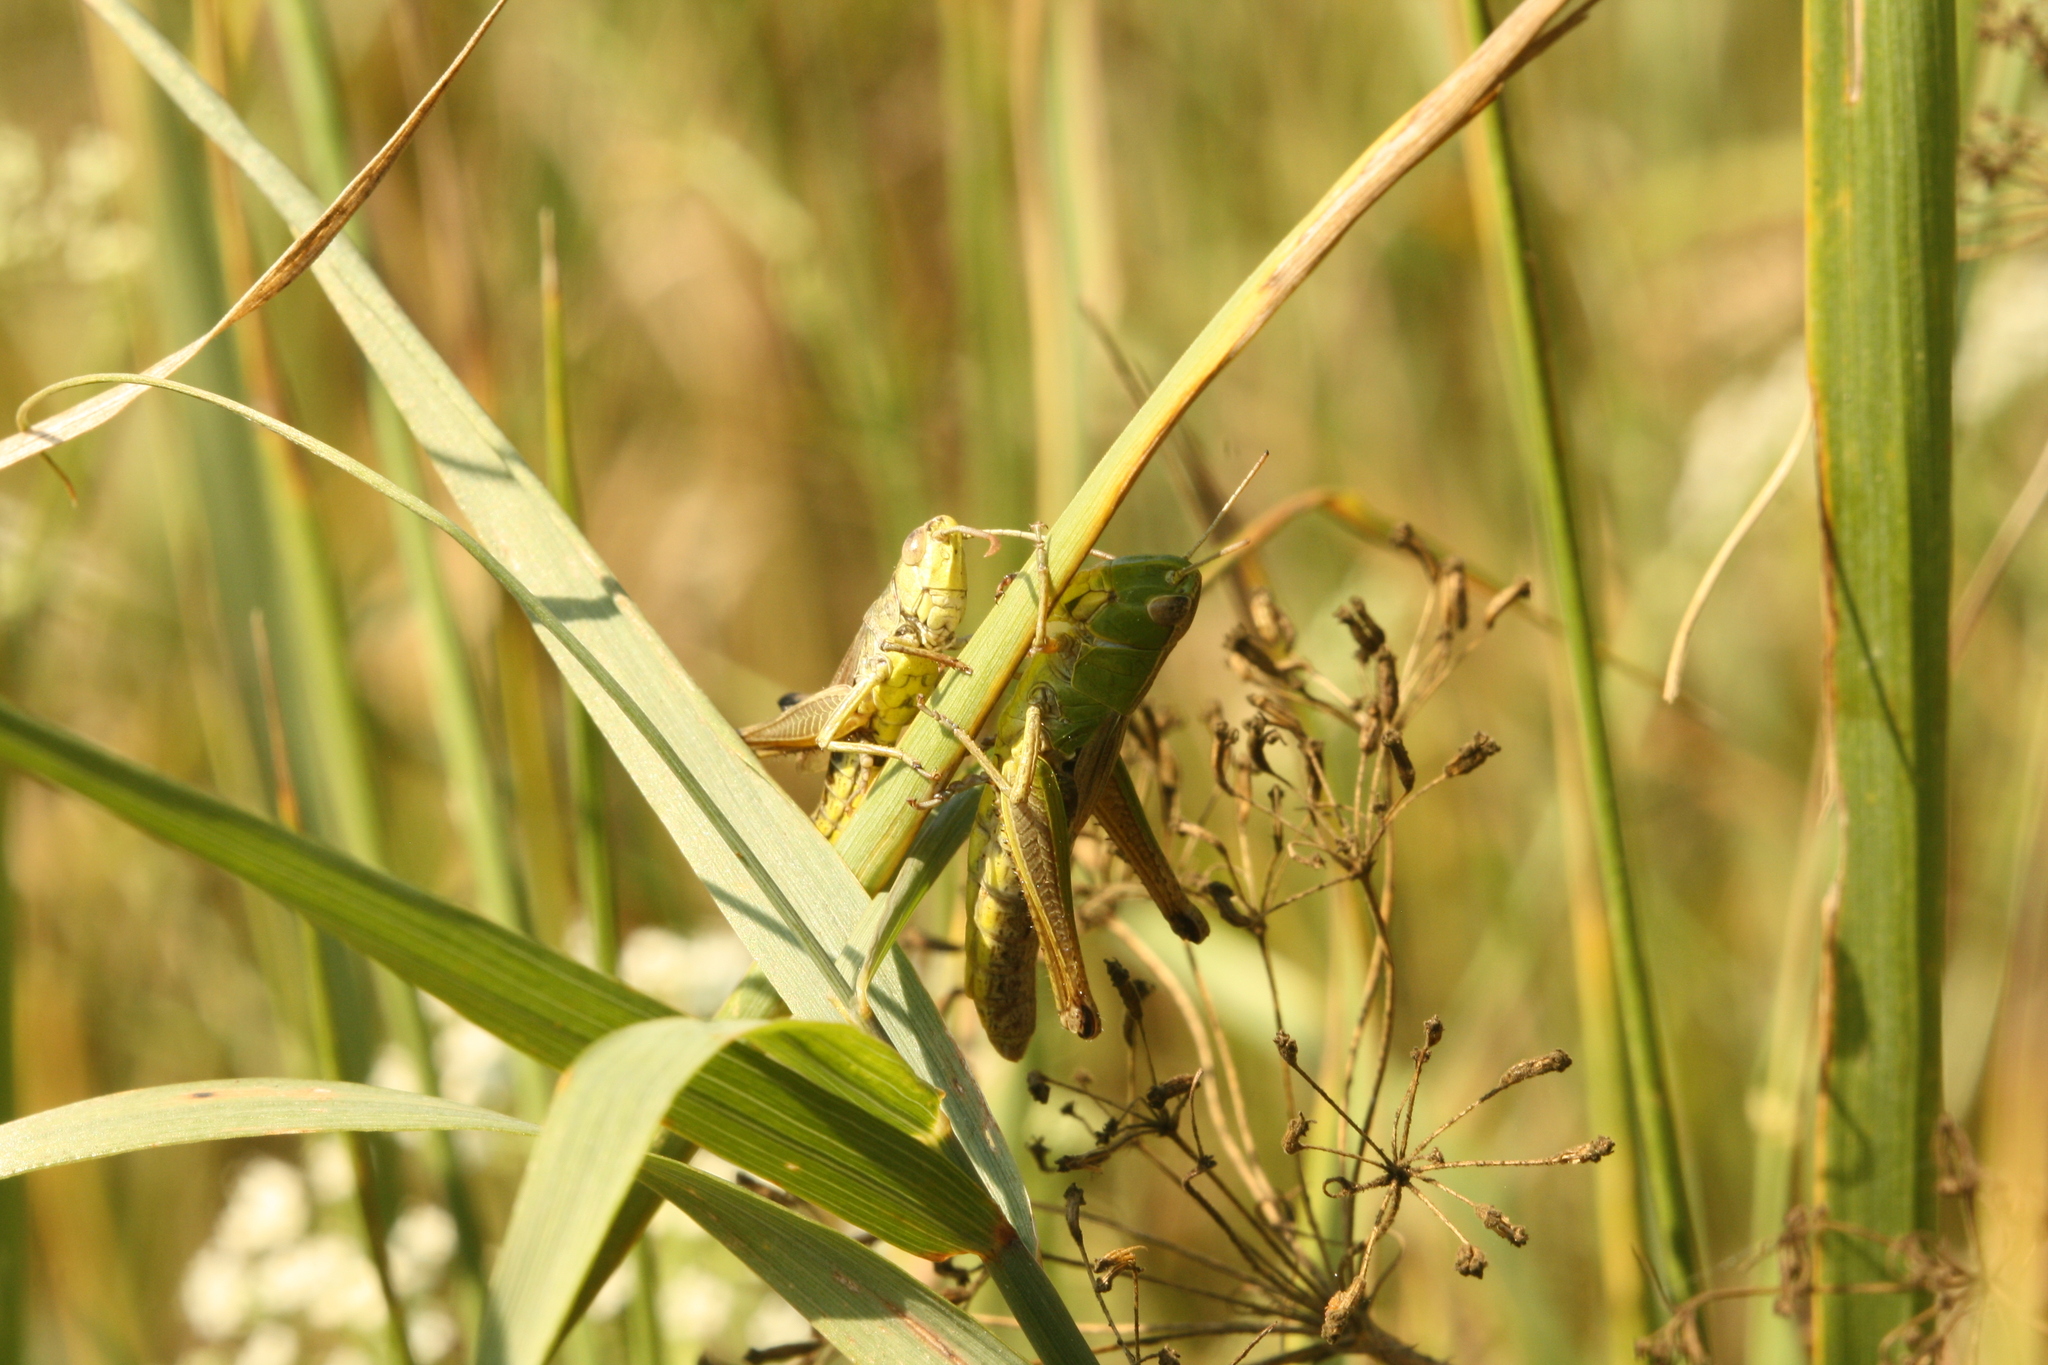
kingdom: Animalia
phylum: Arthropoda
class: Insecta
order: Orthoptera
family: Acrididae
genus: Pseudochorthippus
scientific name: Pseudochorthippus parallelus
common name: Meadow grasshopper
